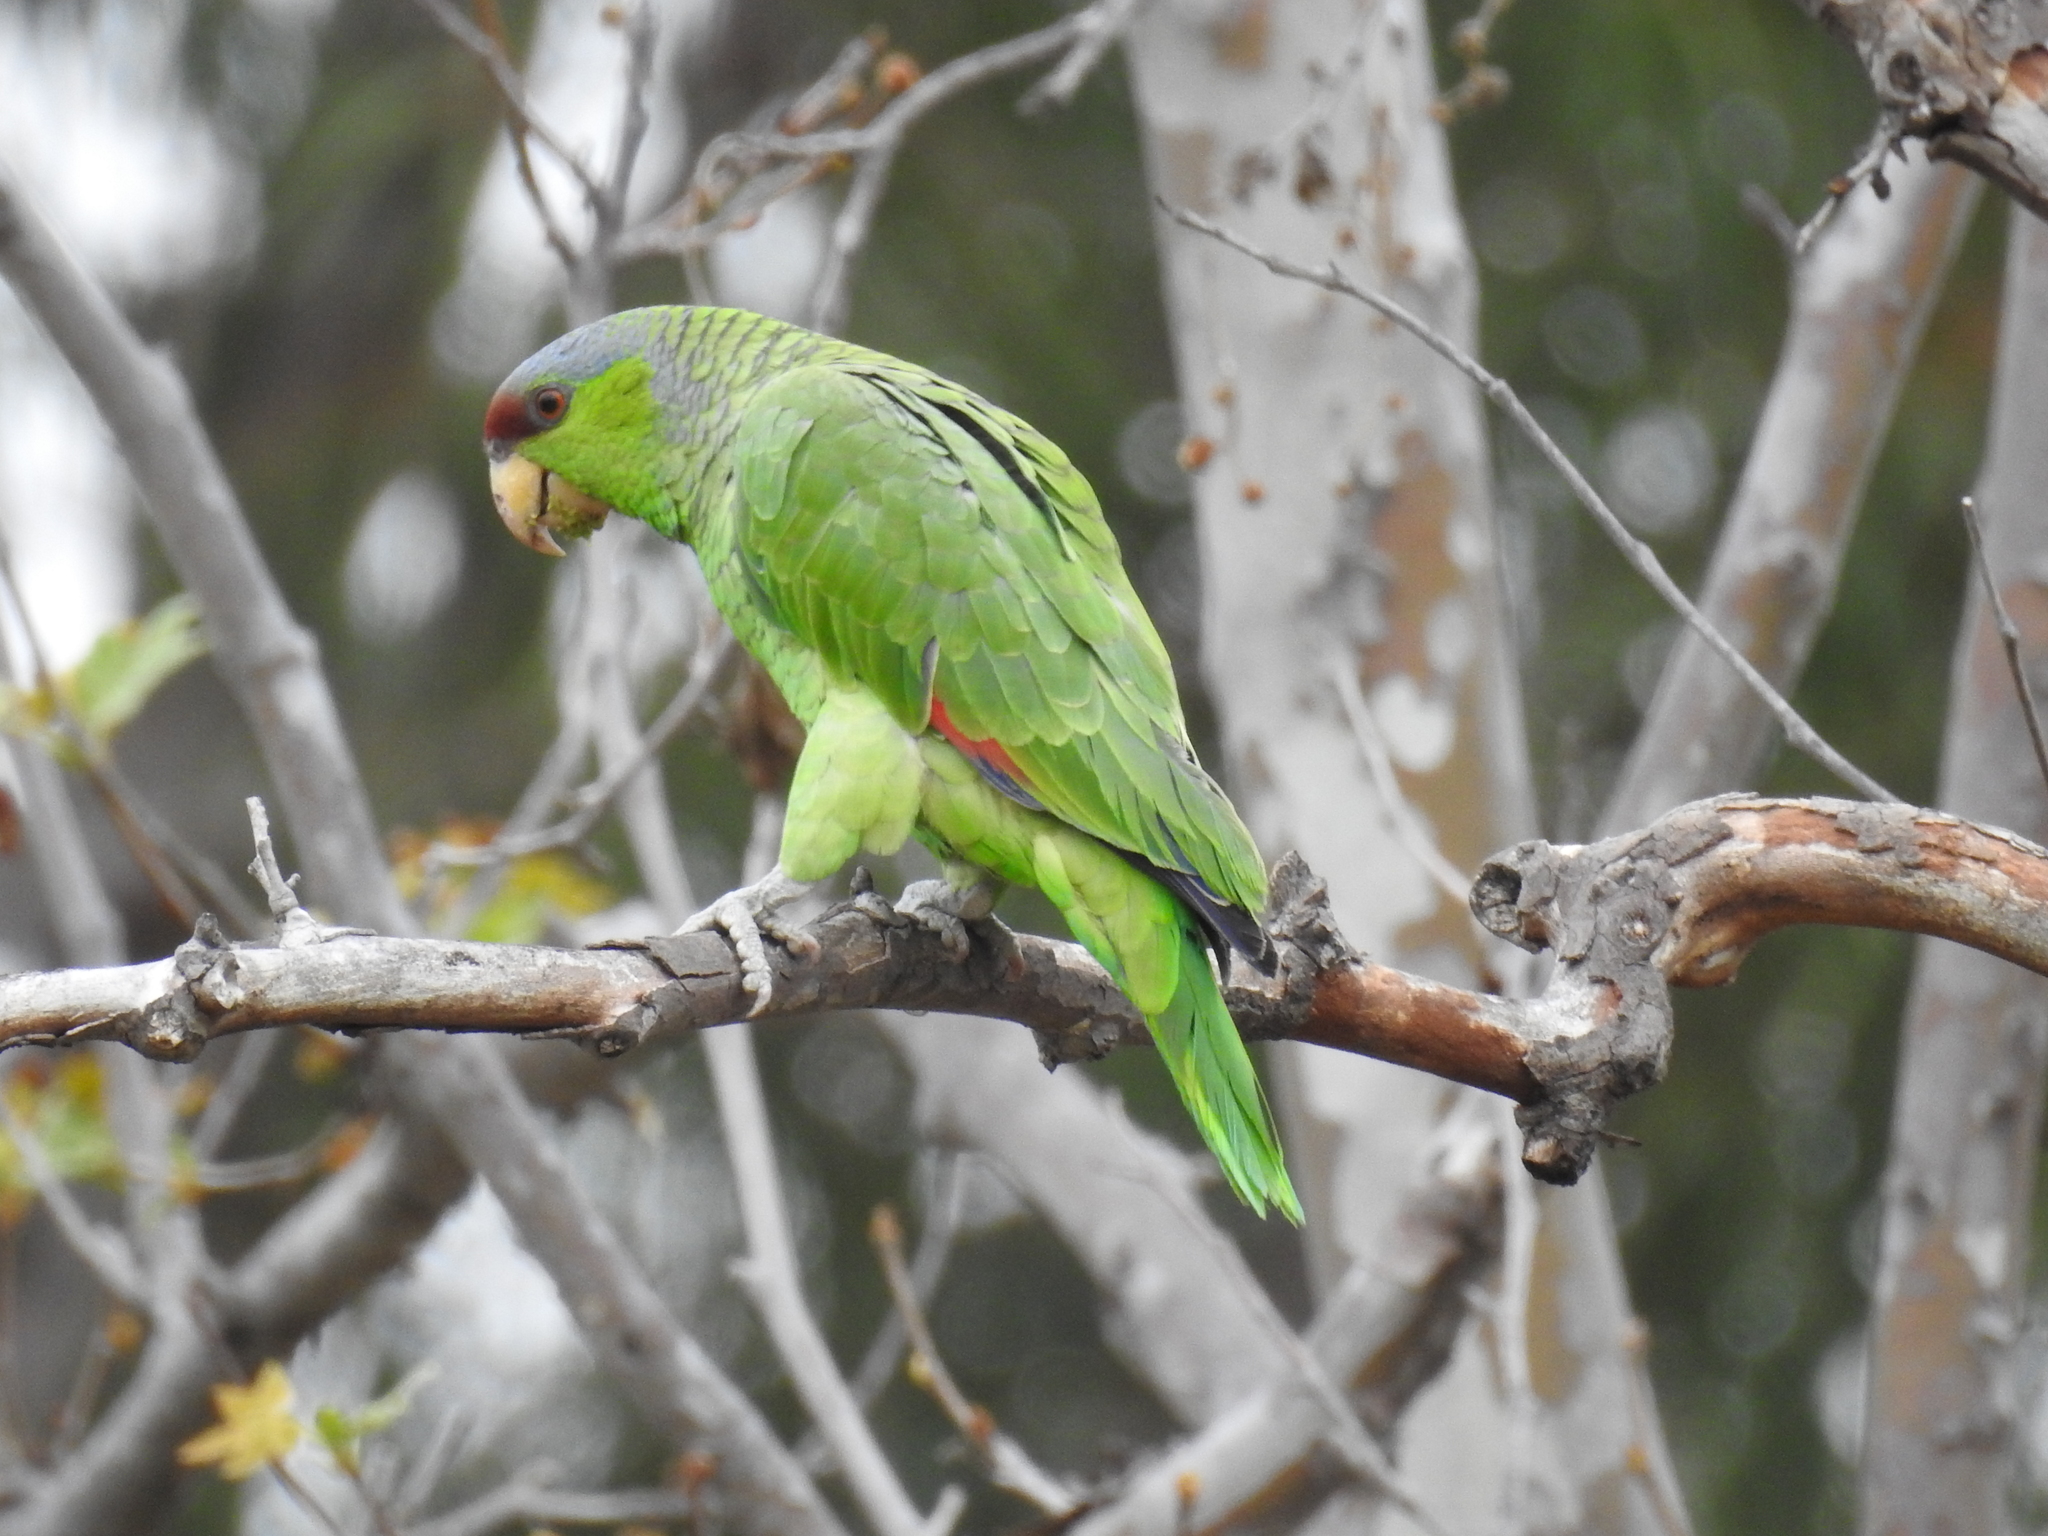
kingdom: Animalia
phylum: Chordata
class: Aves
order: Psittaciformes
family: Psittacidae
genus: Amazona
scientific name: Amazona finschi
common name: Lilac-crowned amazon
